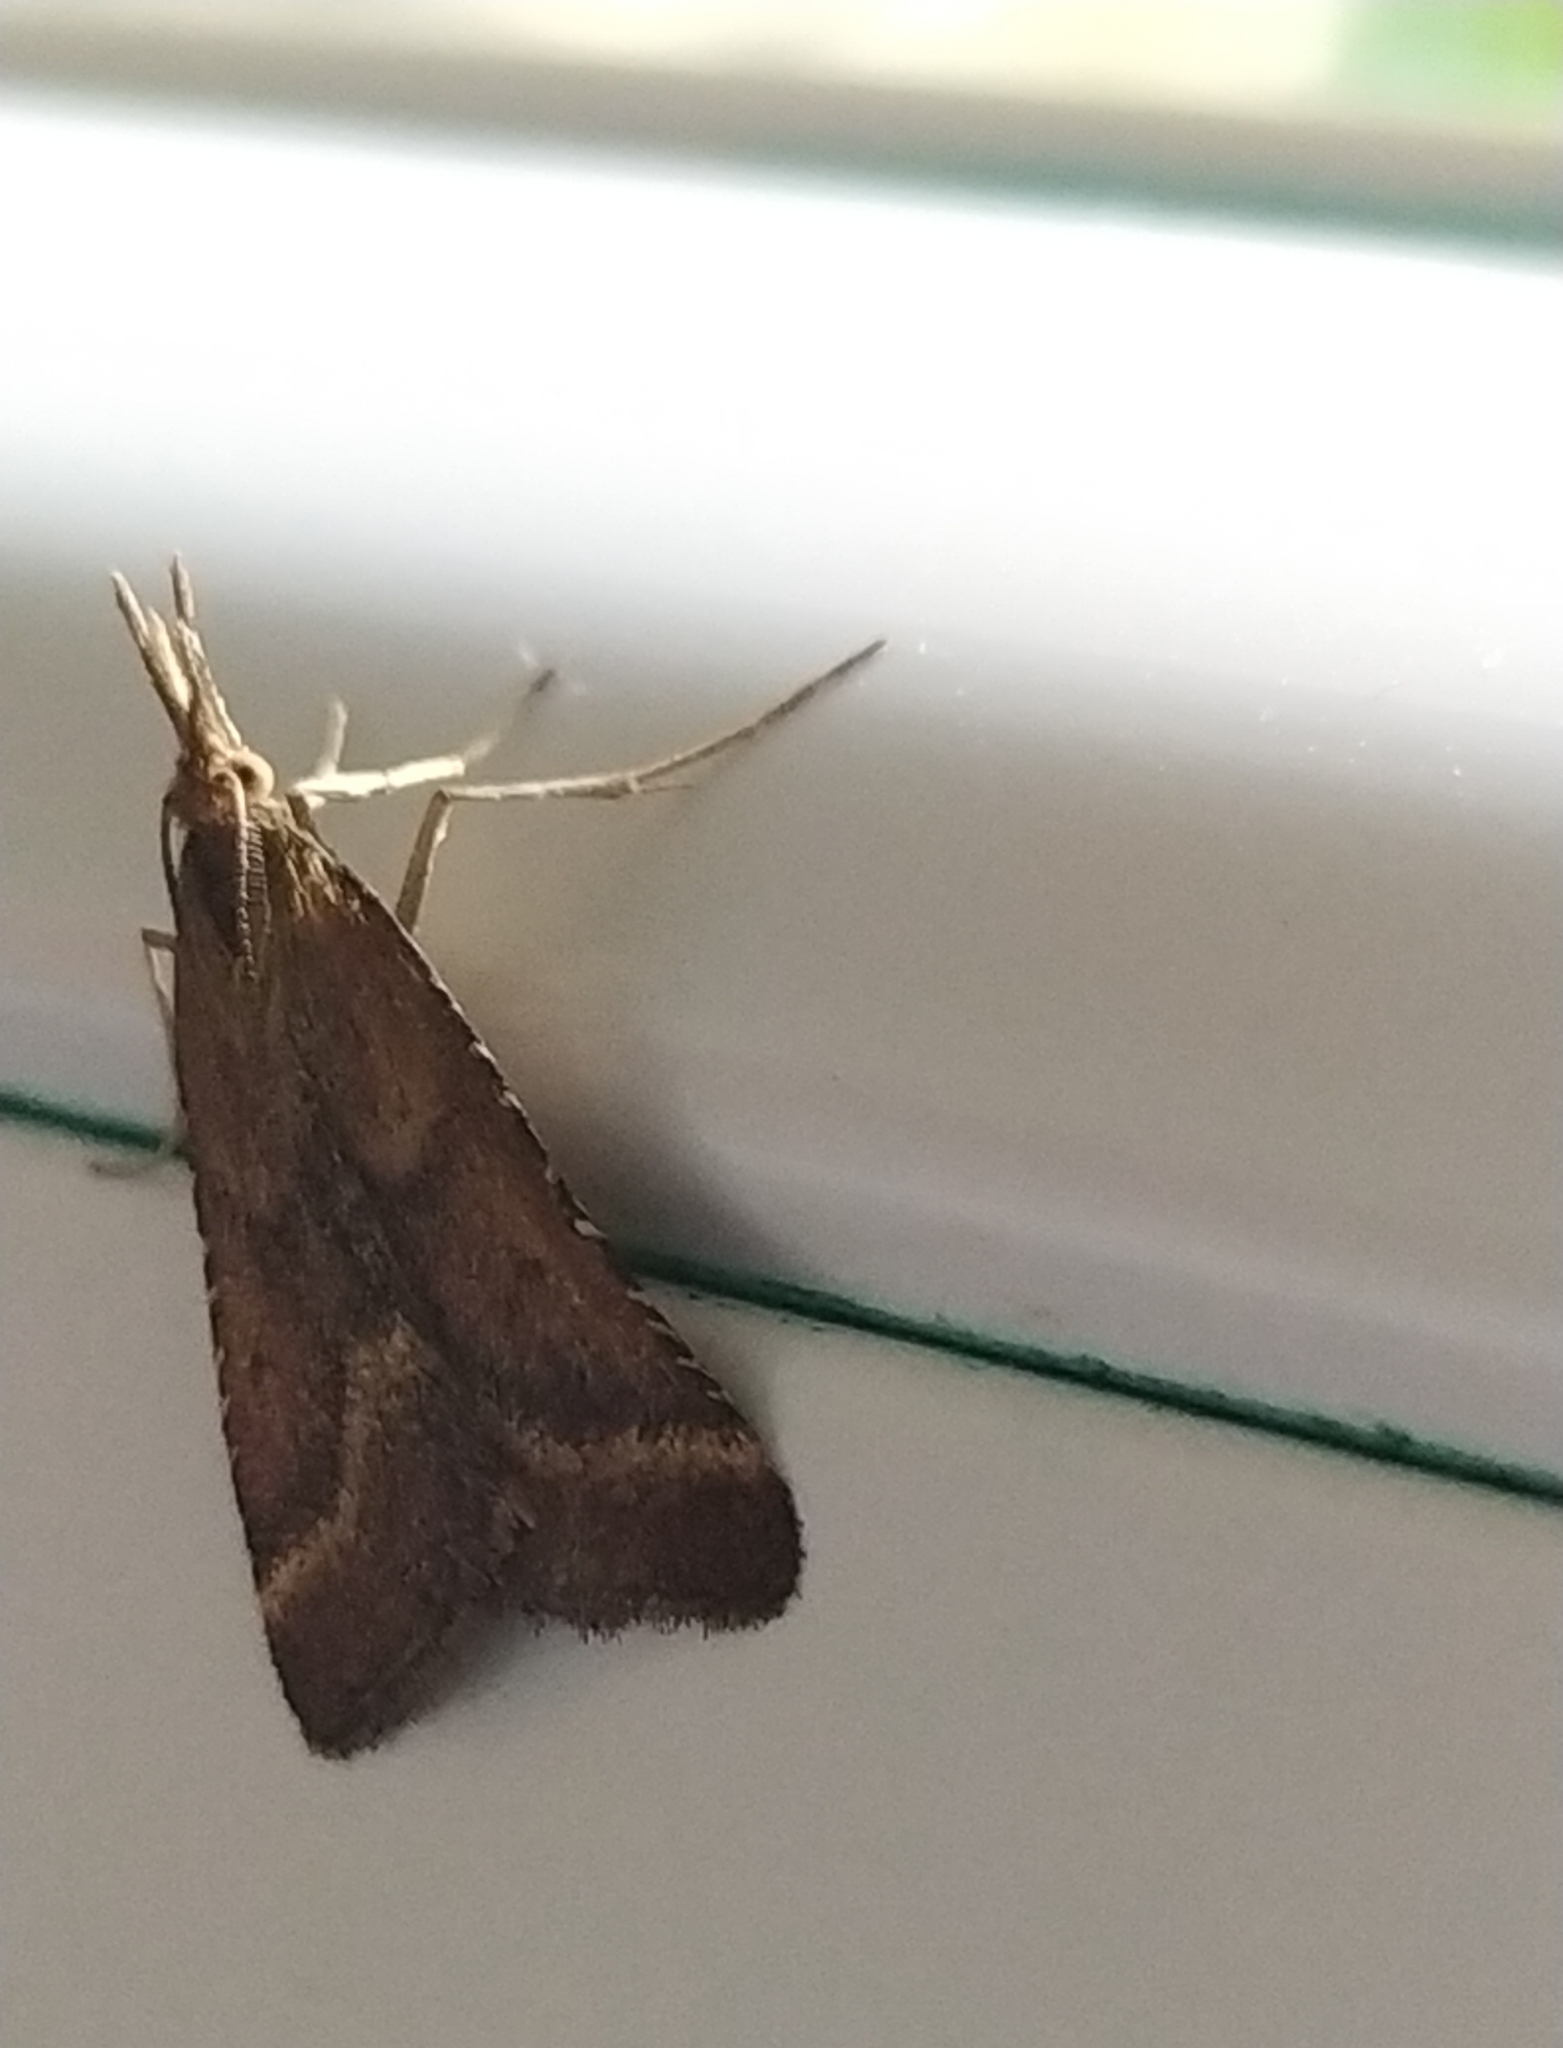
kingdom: Animalia
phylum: Arthropoda
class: Insecta
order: Lepidoptera
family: Pyralidae
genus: Synaphe
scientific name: Synaphe punctalis
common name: Long-legged tabby
